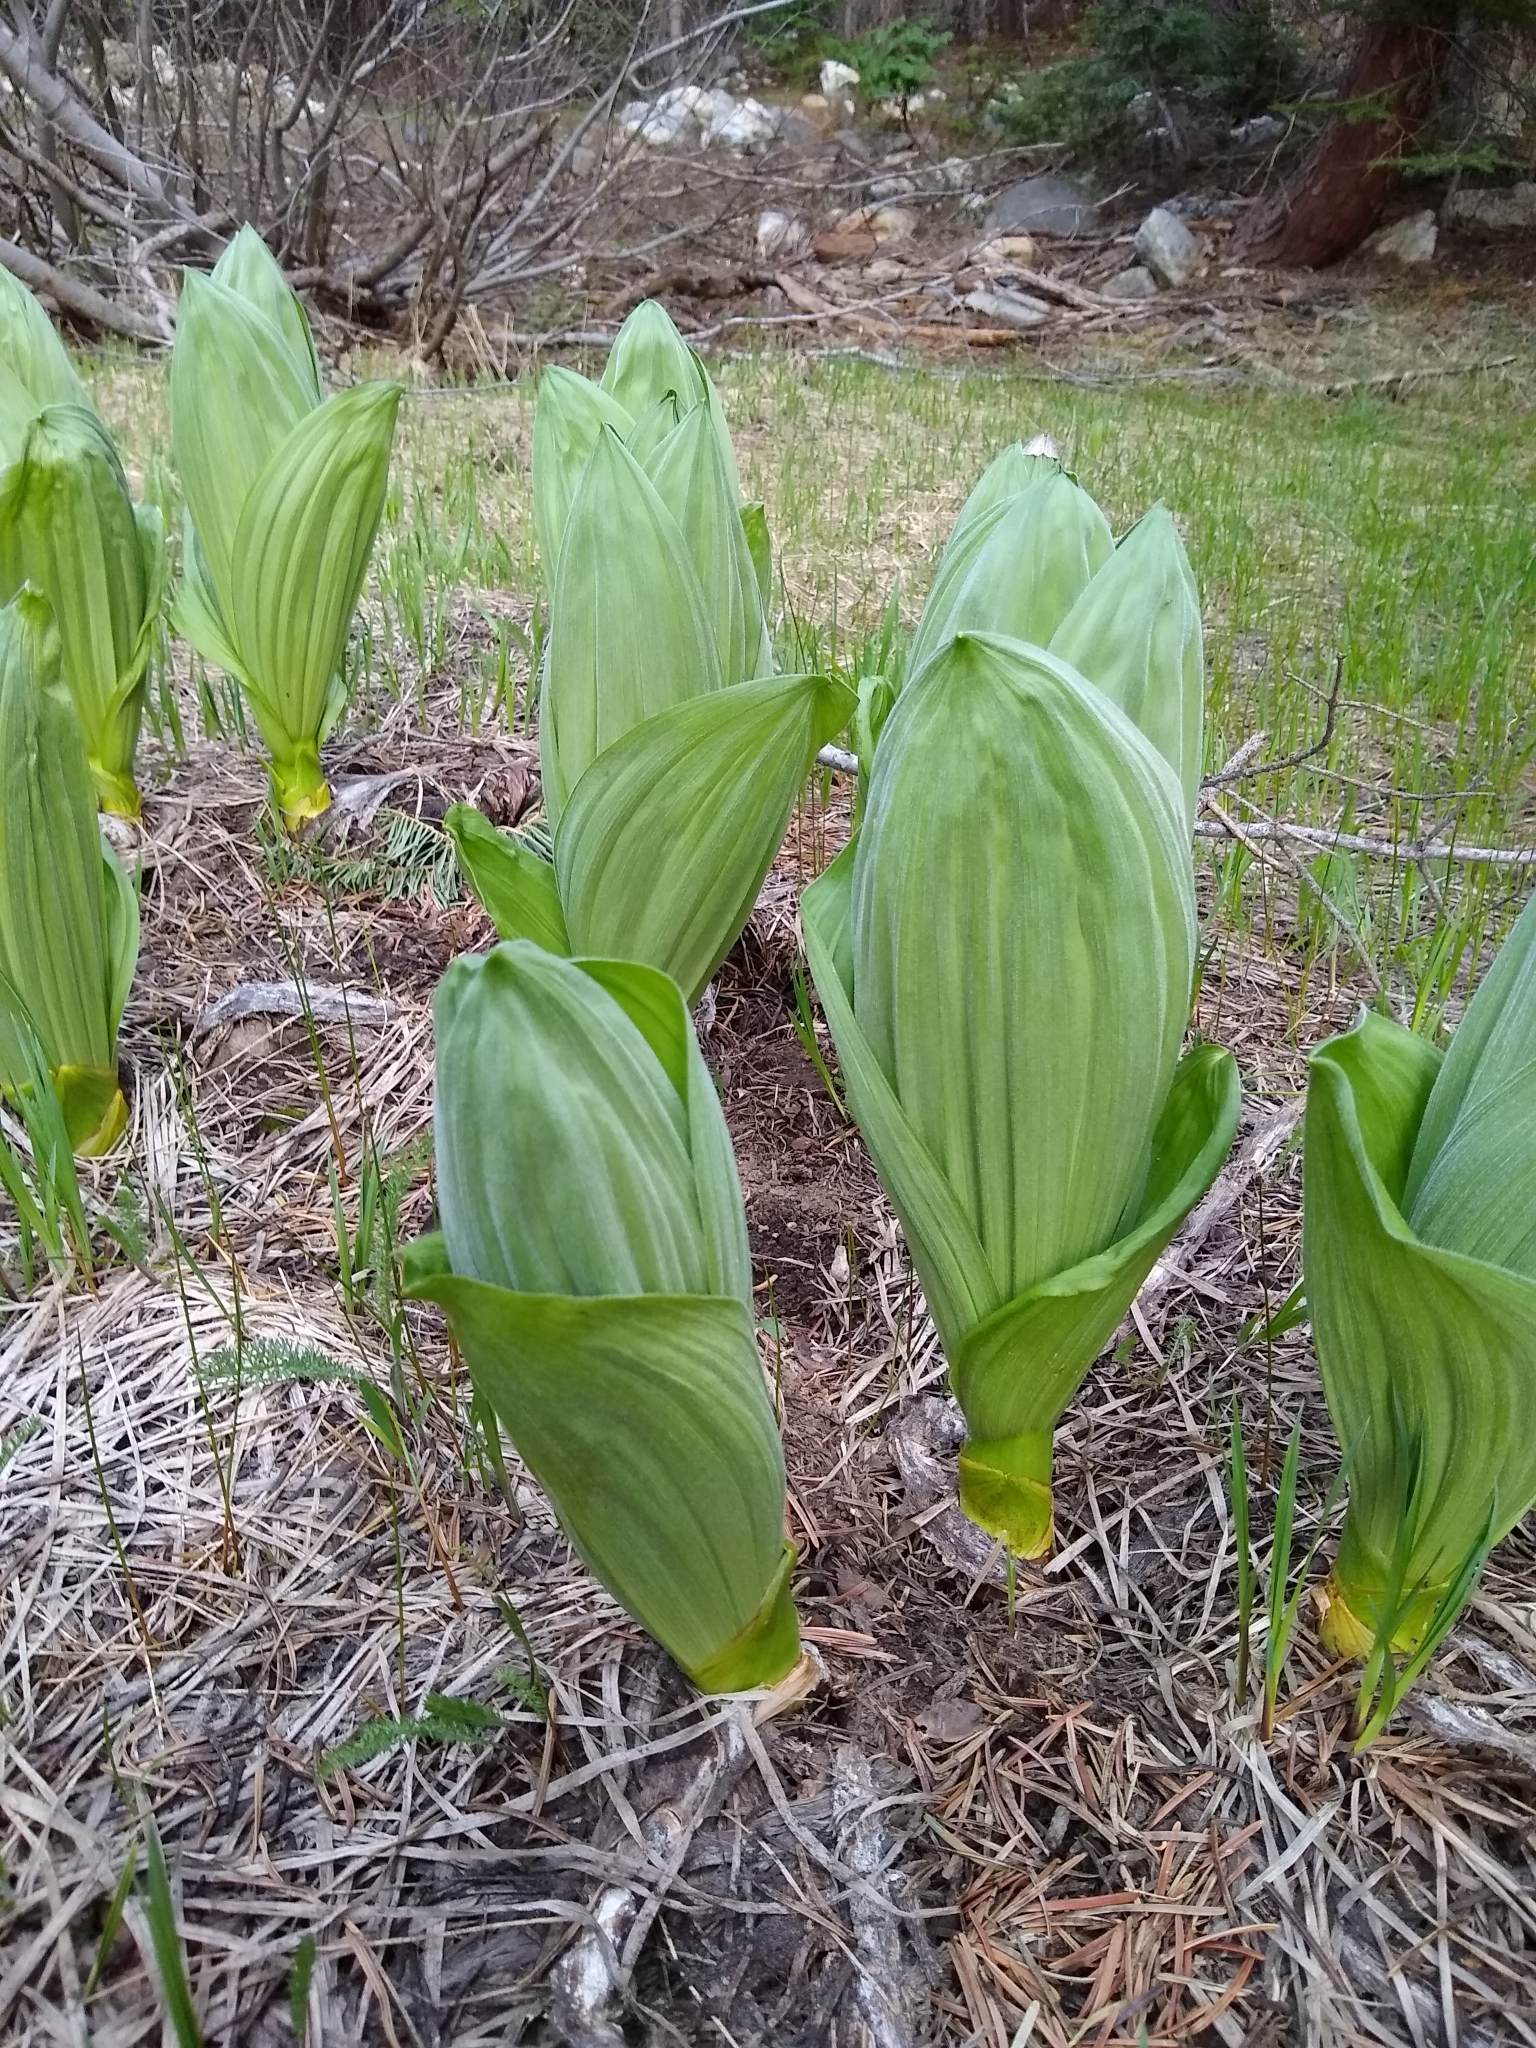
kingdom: Plantae
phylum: Tracheophyta
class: Liliopsida
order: Liliales
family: Melanthiaceae
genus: Veratrum
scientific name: Veratrum californicum
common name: California veratrum
